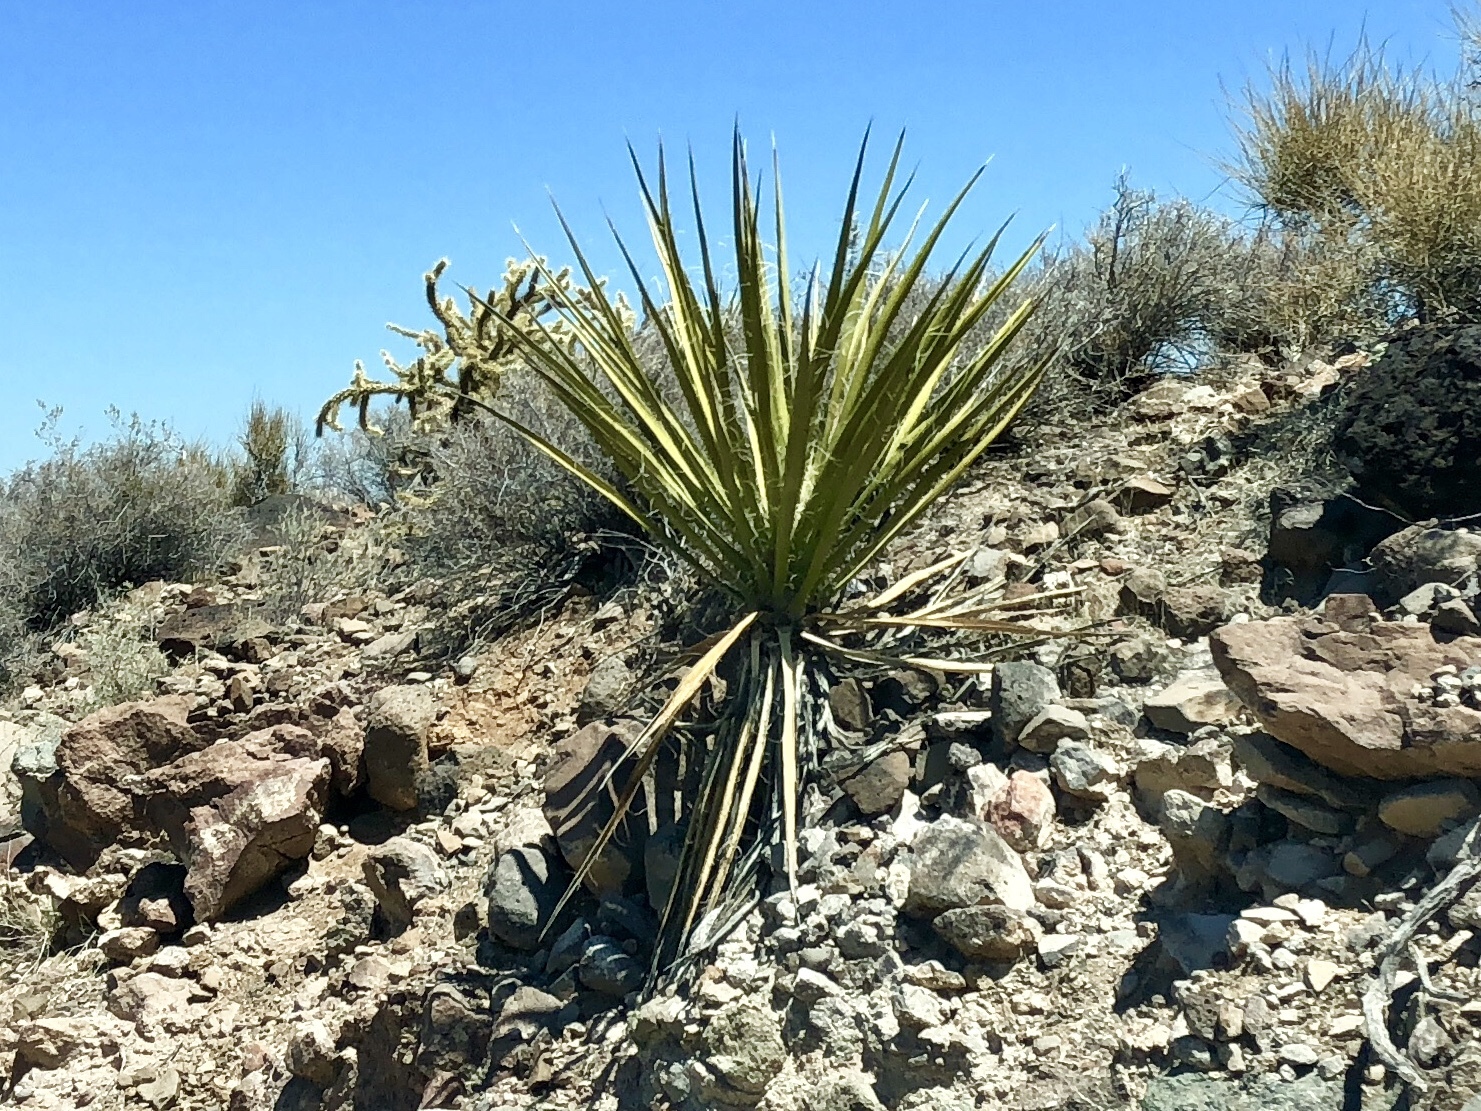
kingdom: Plantae
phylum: Tracheophyta
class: Liliopsida
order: Asparagales
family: Asparagaceae
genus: Yucca
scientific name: Yucca schidigera
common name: Mojave yucca
